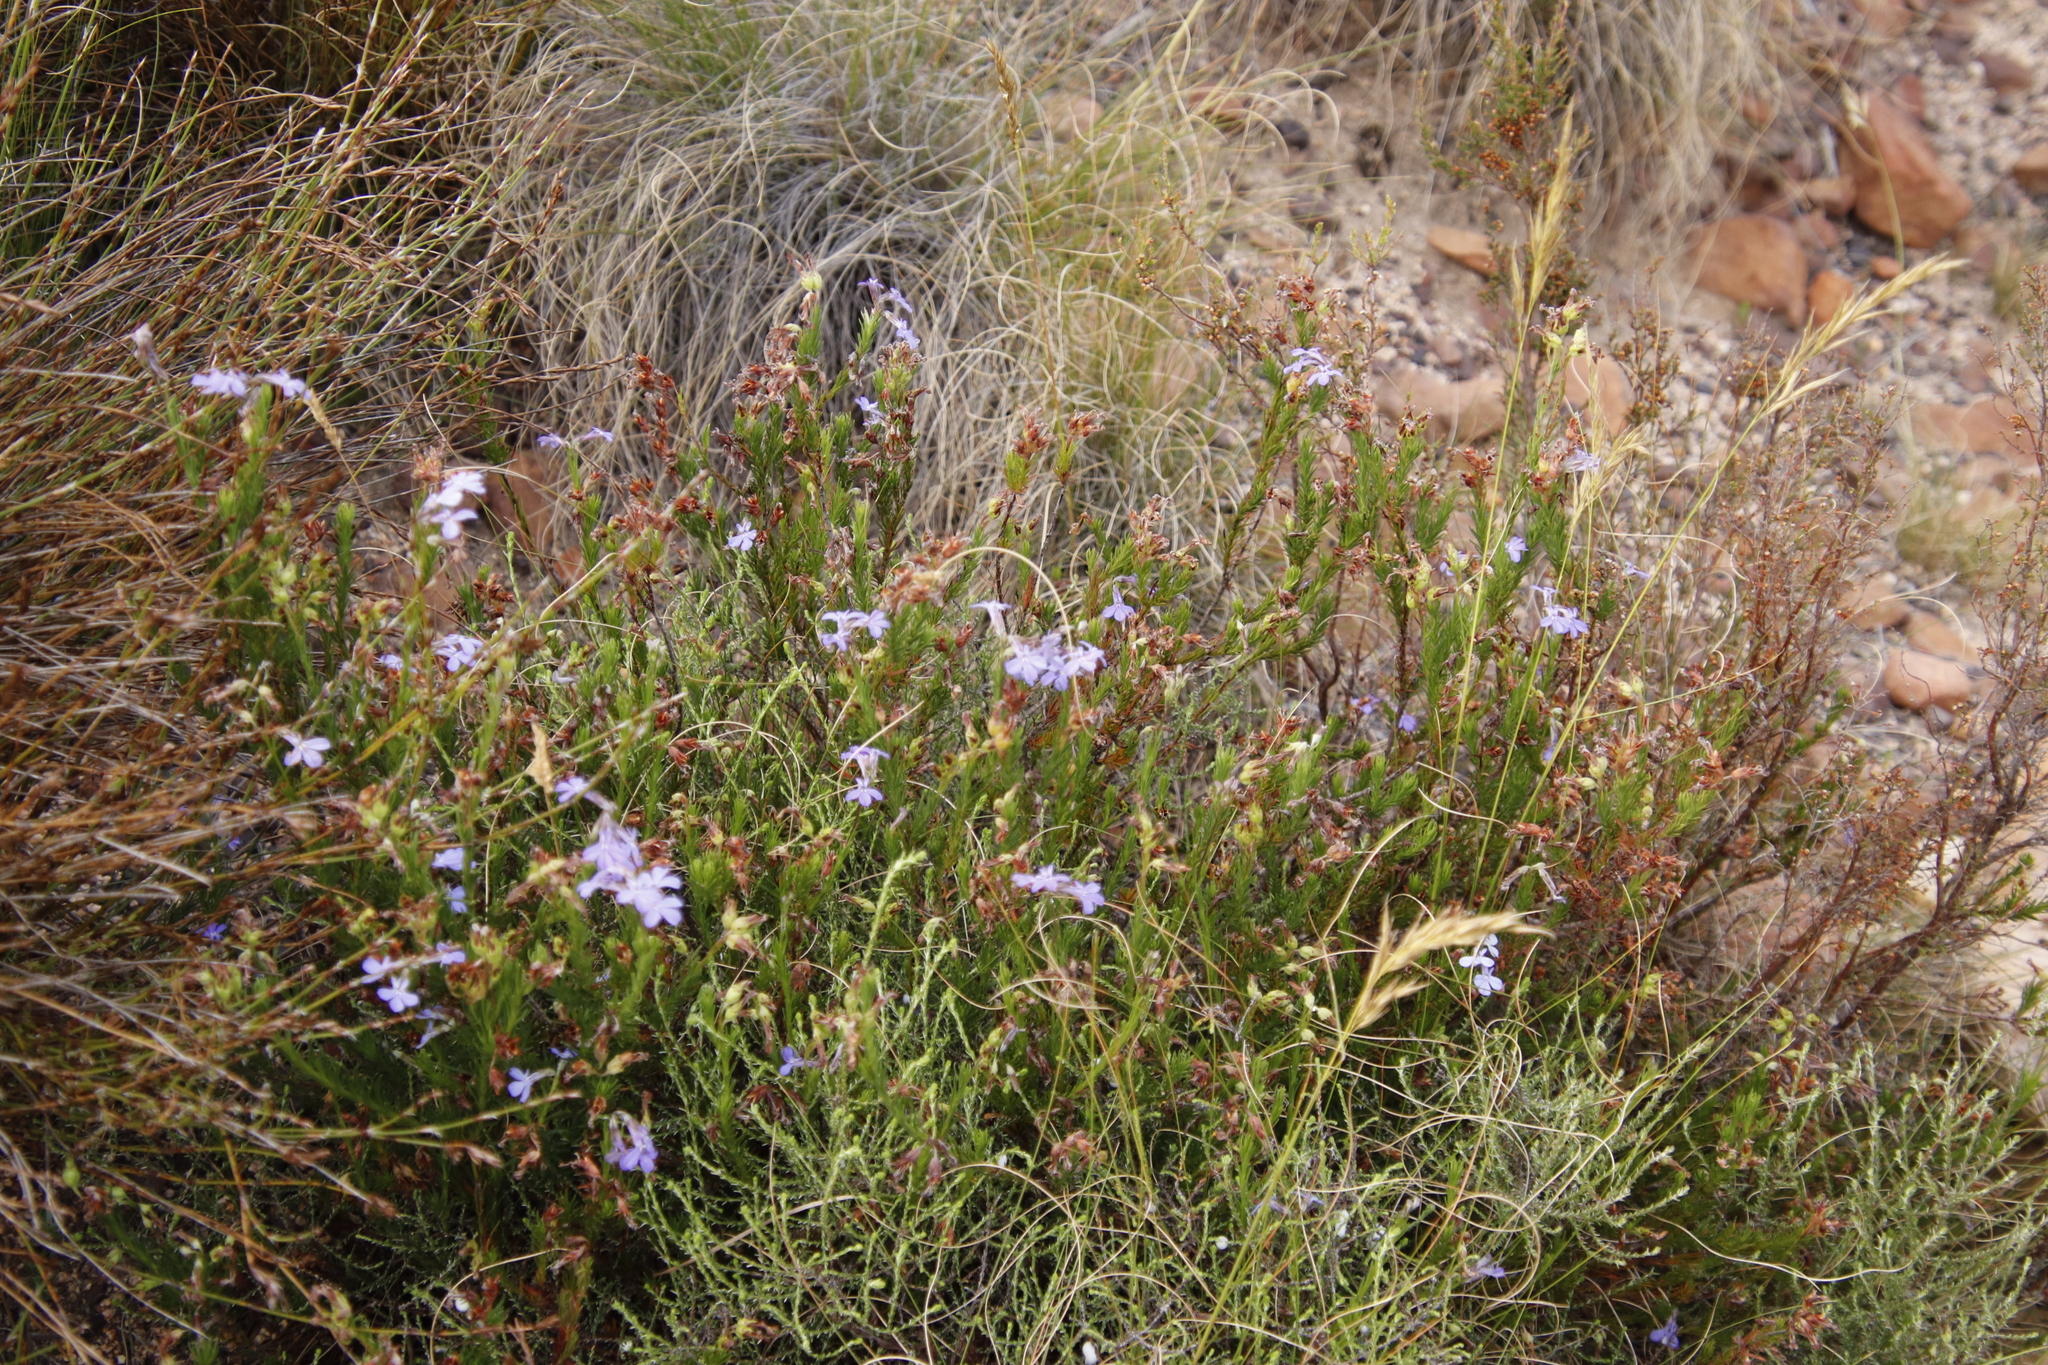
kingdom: Plantae
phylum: Tracheophyta
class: Magnoliopsida
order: Asterales
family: Campanulaceae
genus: Lobelia
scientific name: Lobelia pinifolia
